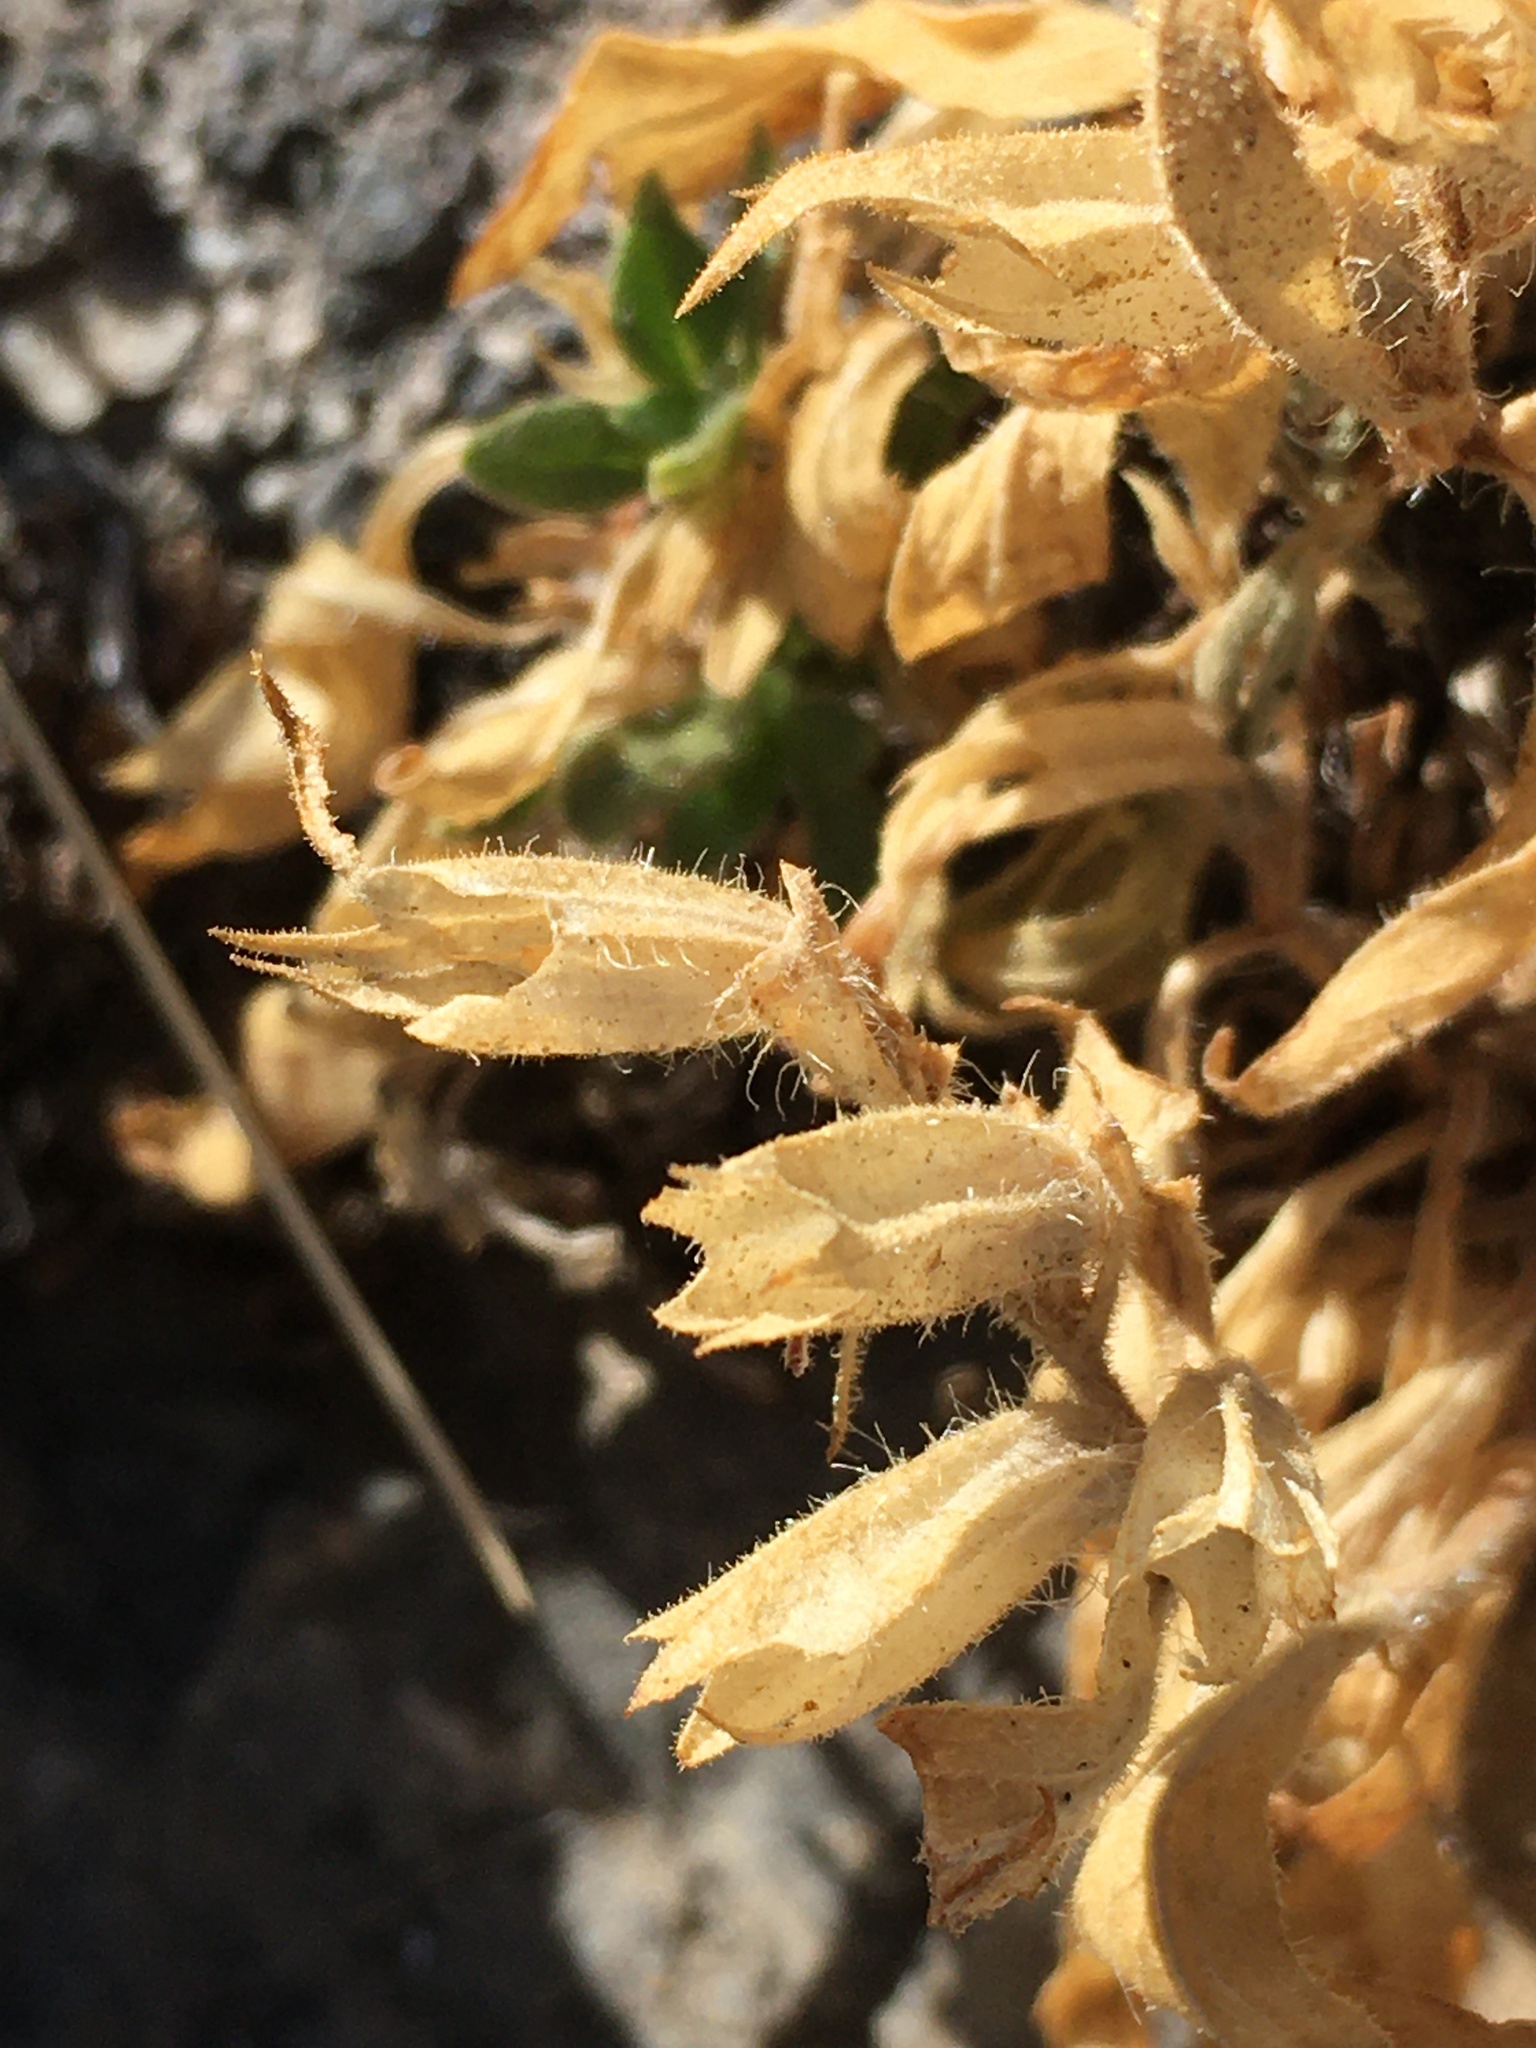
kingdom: Plantae
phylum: Tracheophyta
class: Magnoliopsida
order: Lamiales
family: Phrymaceae
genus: Diplacus
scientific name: Diplacus rupicola
